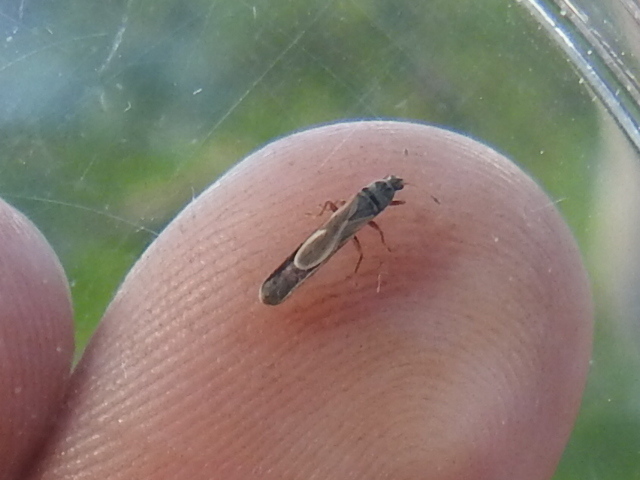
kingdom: Animalia
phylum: Arthropoda
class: Insecta
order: Hemiptera
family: Blissidae
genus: Extarademus
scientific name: Extarademus umbratus
